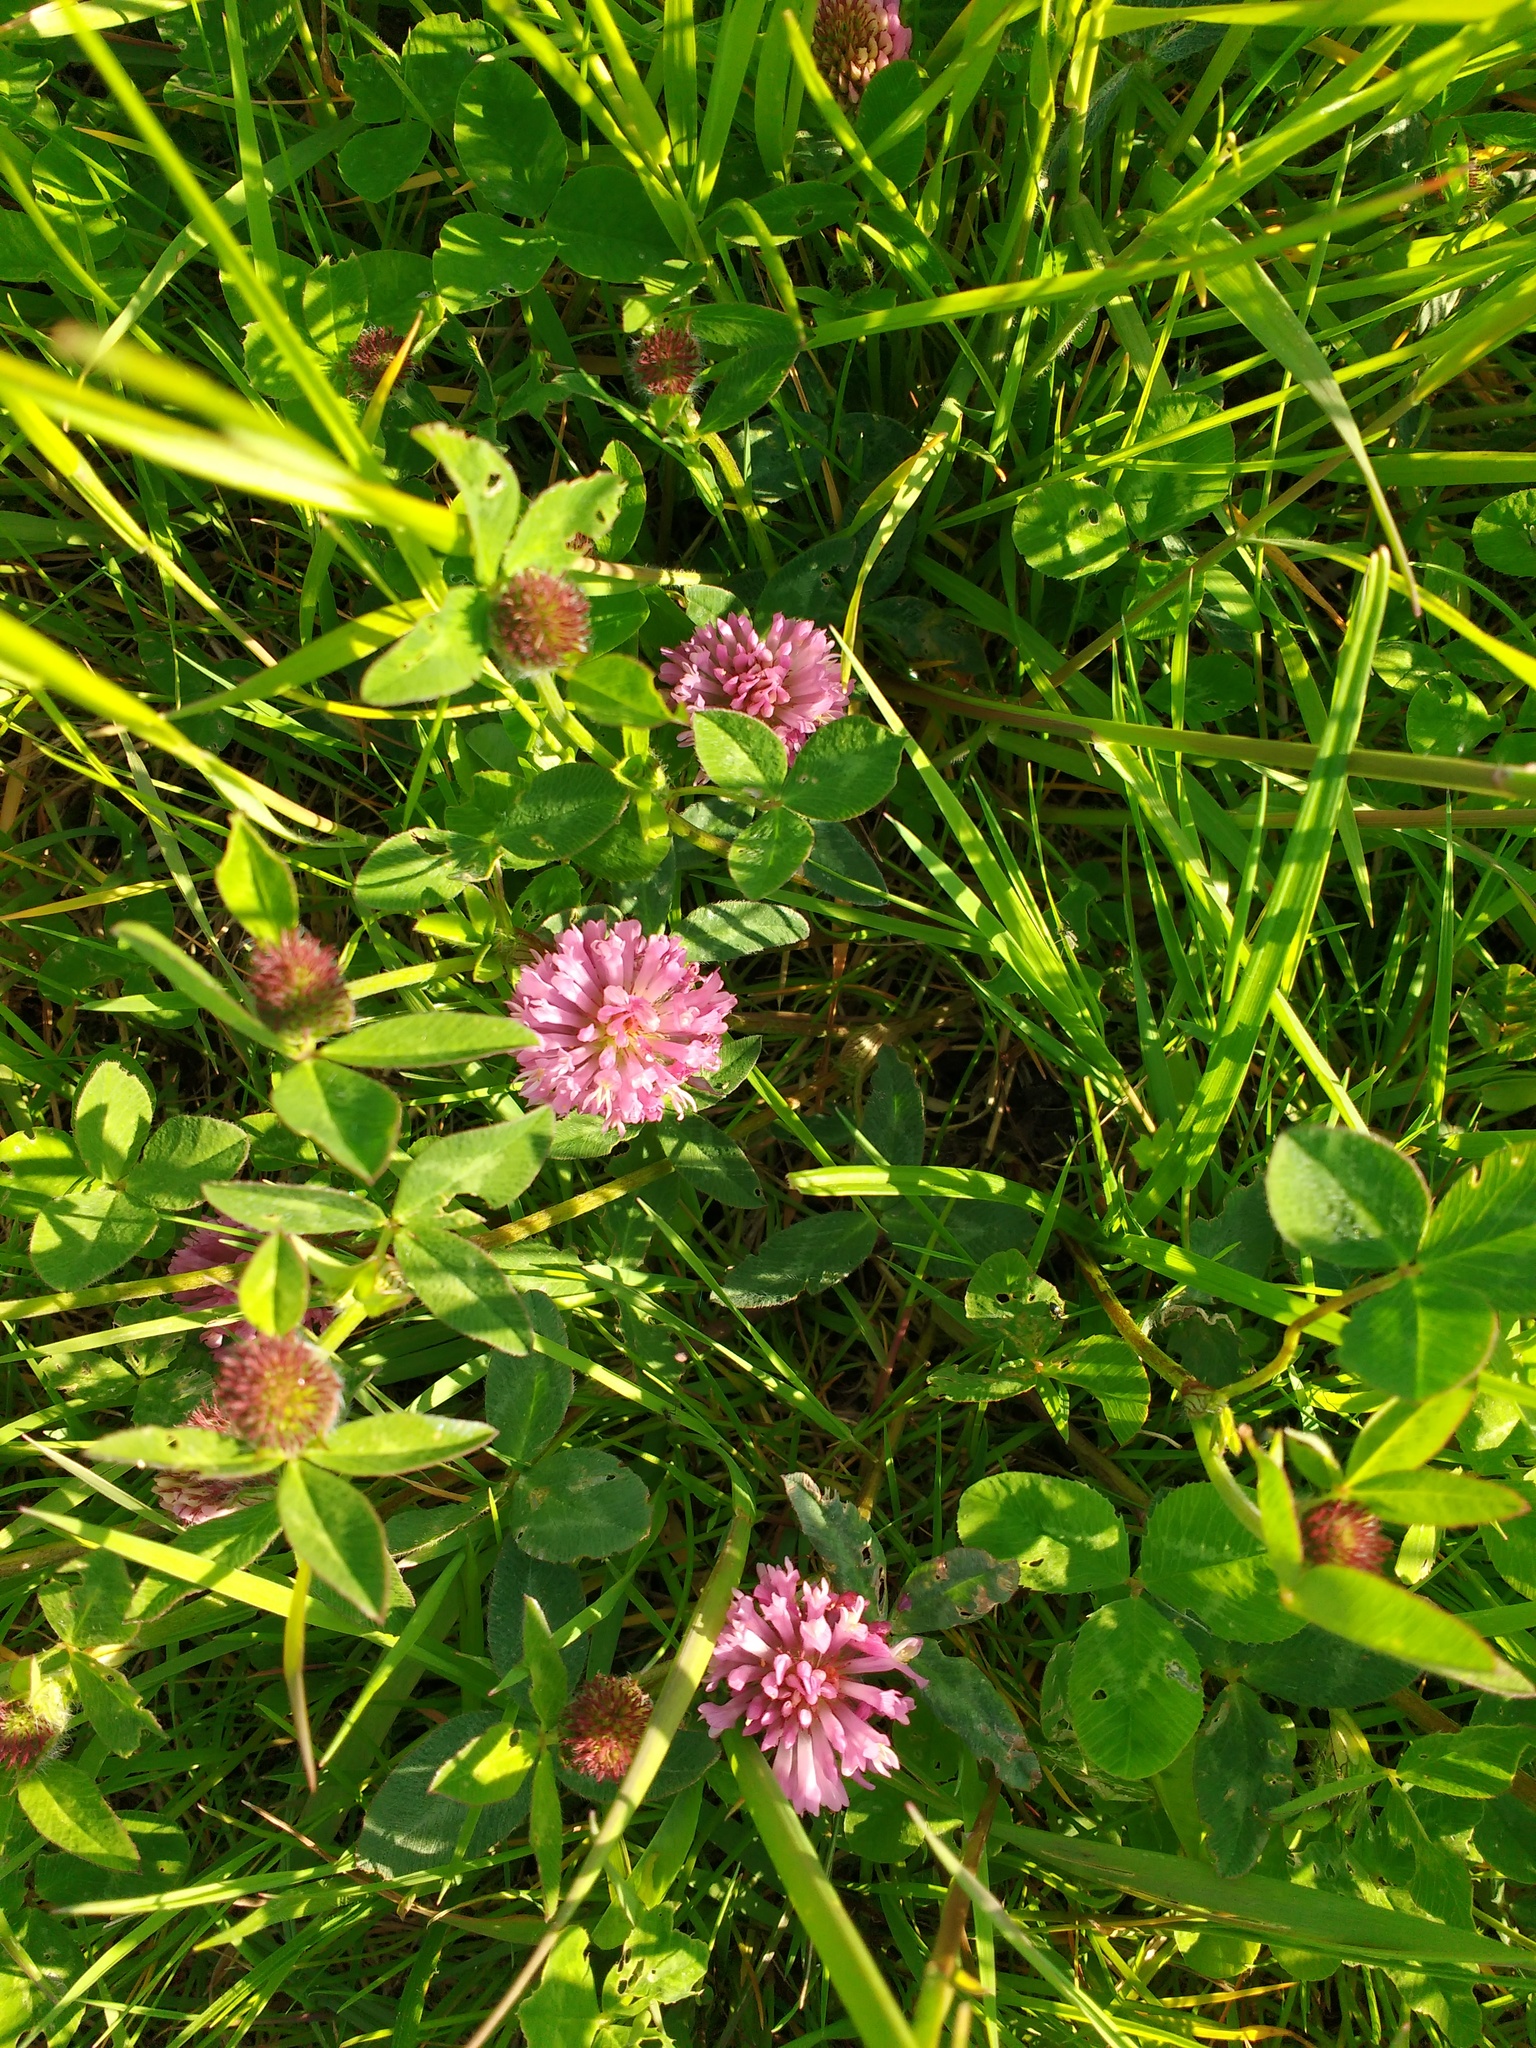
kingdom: Plantae
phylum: Tracheophyta
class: Magnoliopsida
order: Fabales
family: Fabaceae
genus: Trifolium
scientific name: Trifolium pratense
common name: Red clover
